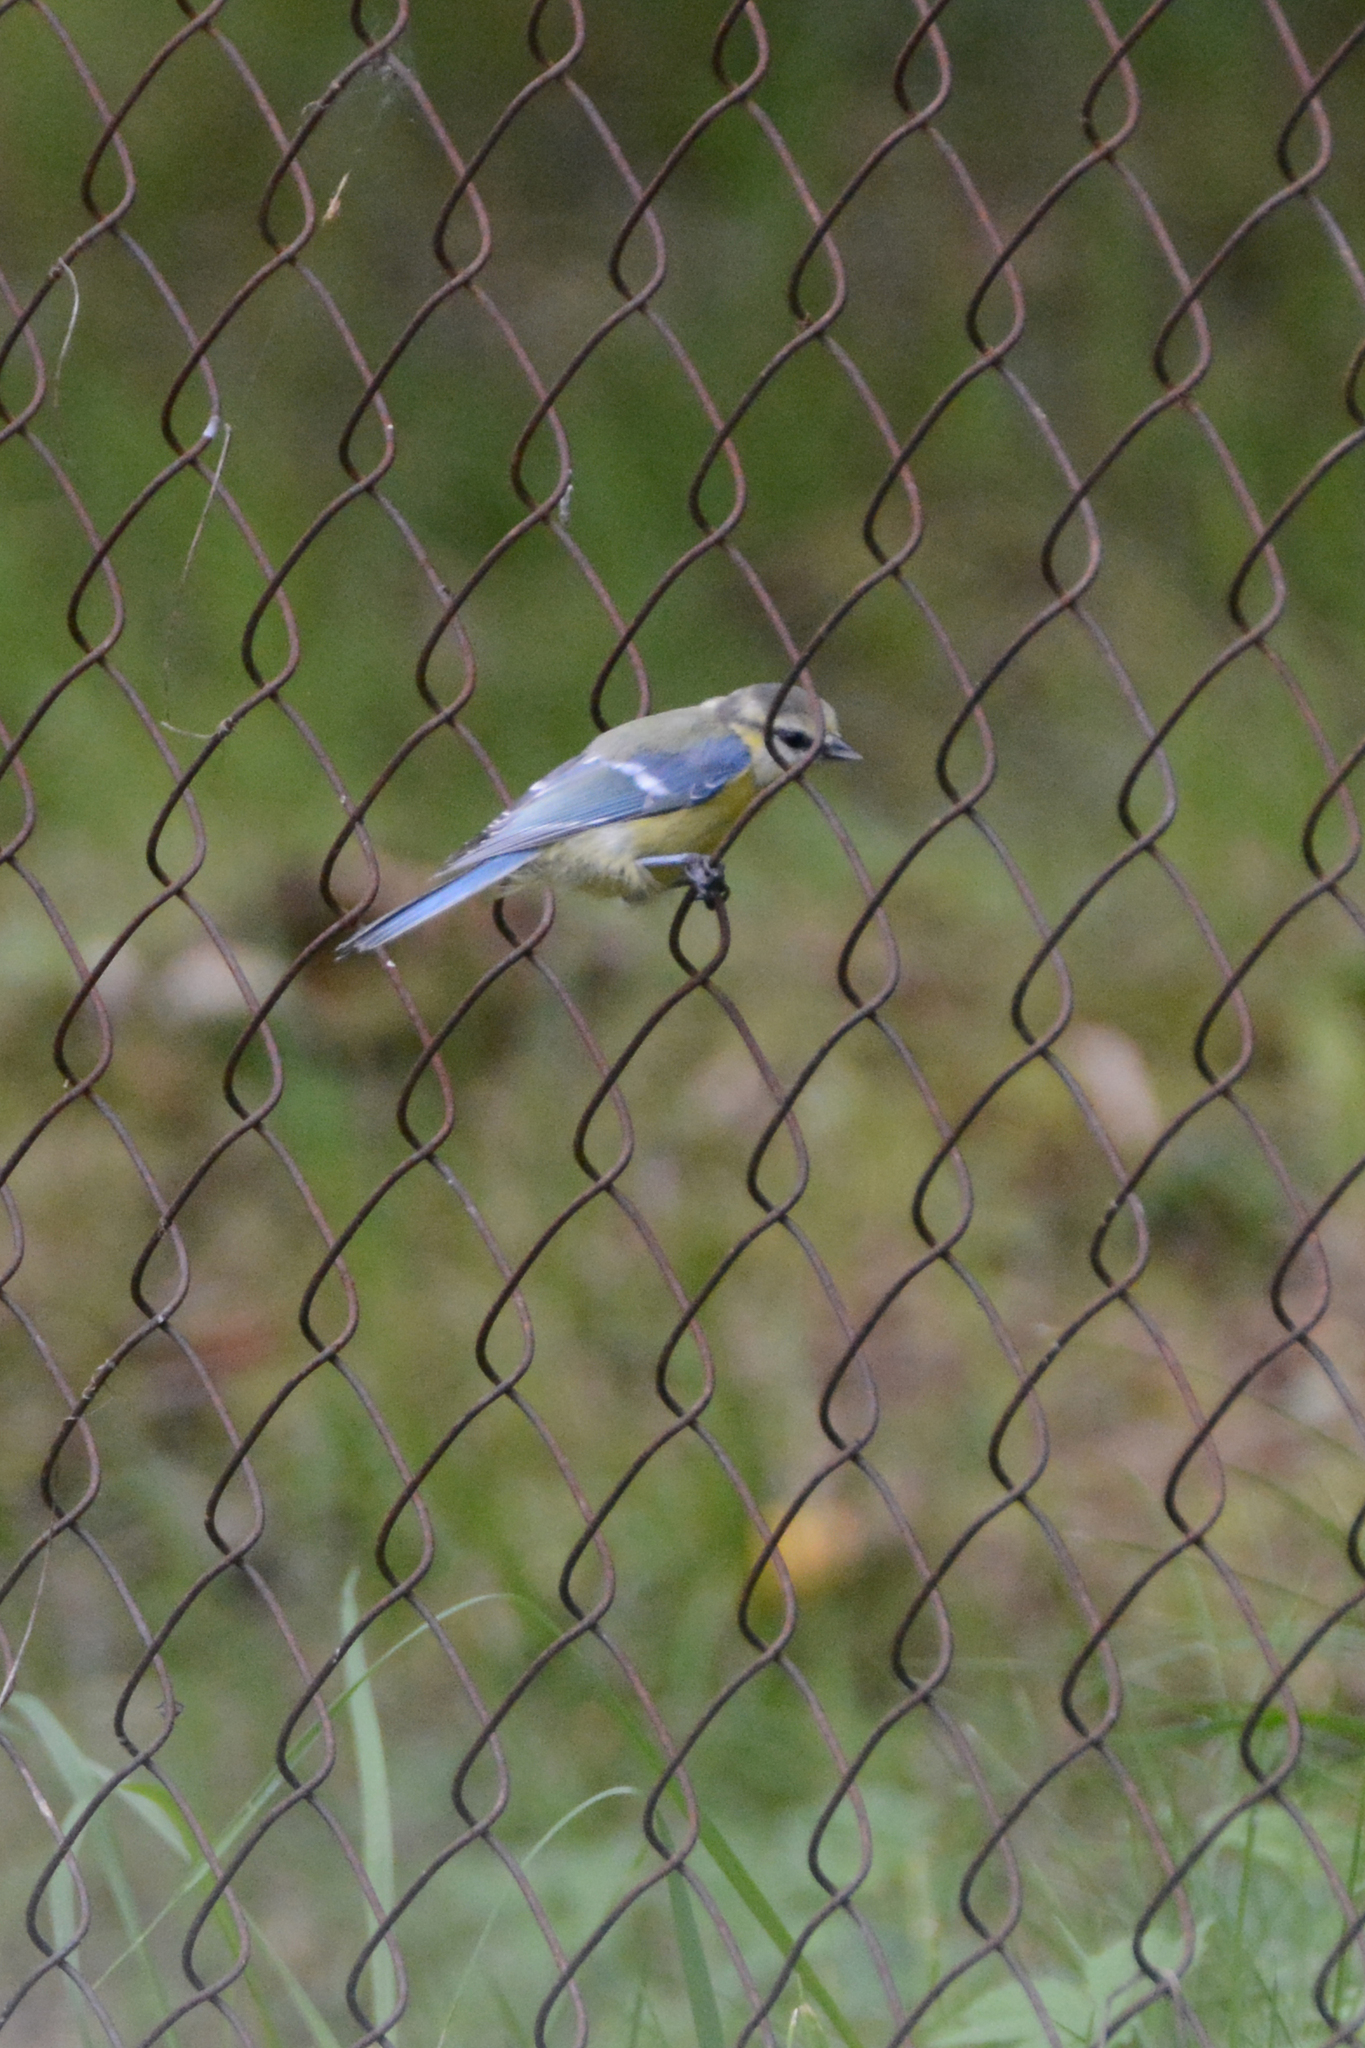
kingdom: Animalia
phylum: Chordata
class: Aves
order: Passeriformes
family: Paridae
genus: Cyanistes
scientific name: Cyanistes caeruleus
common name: Eurasian blue tit
